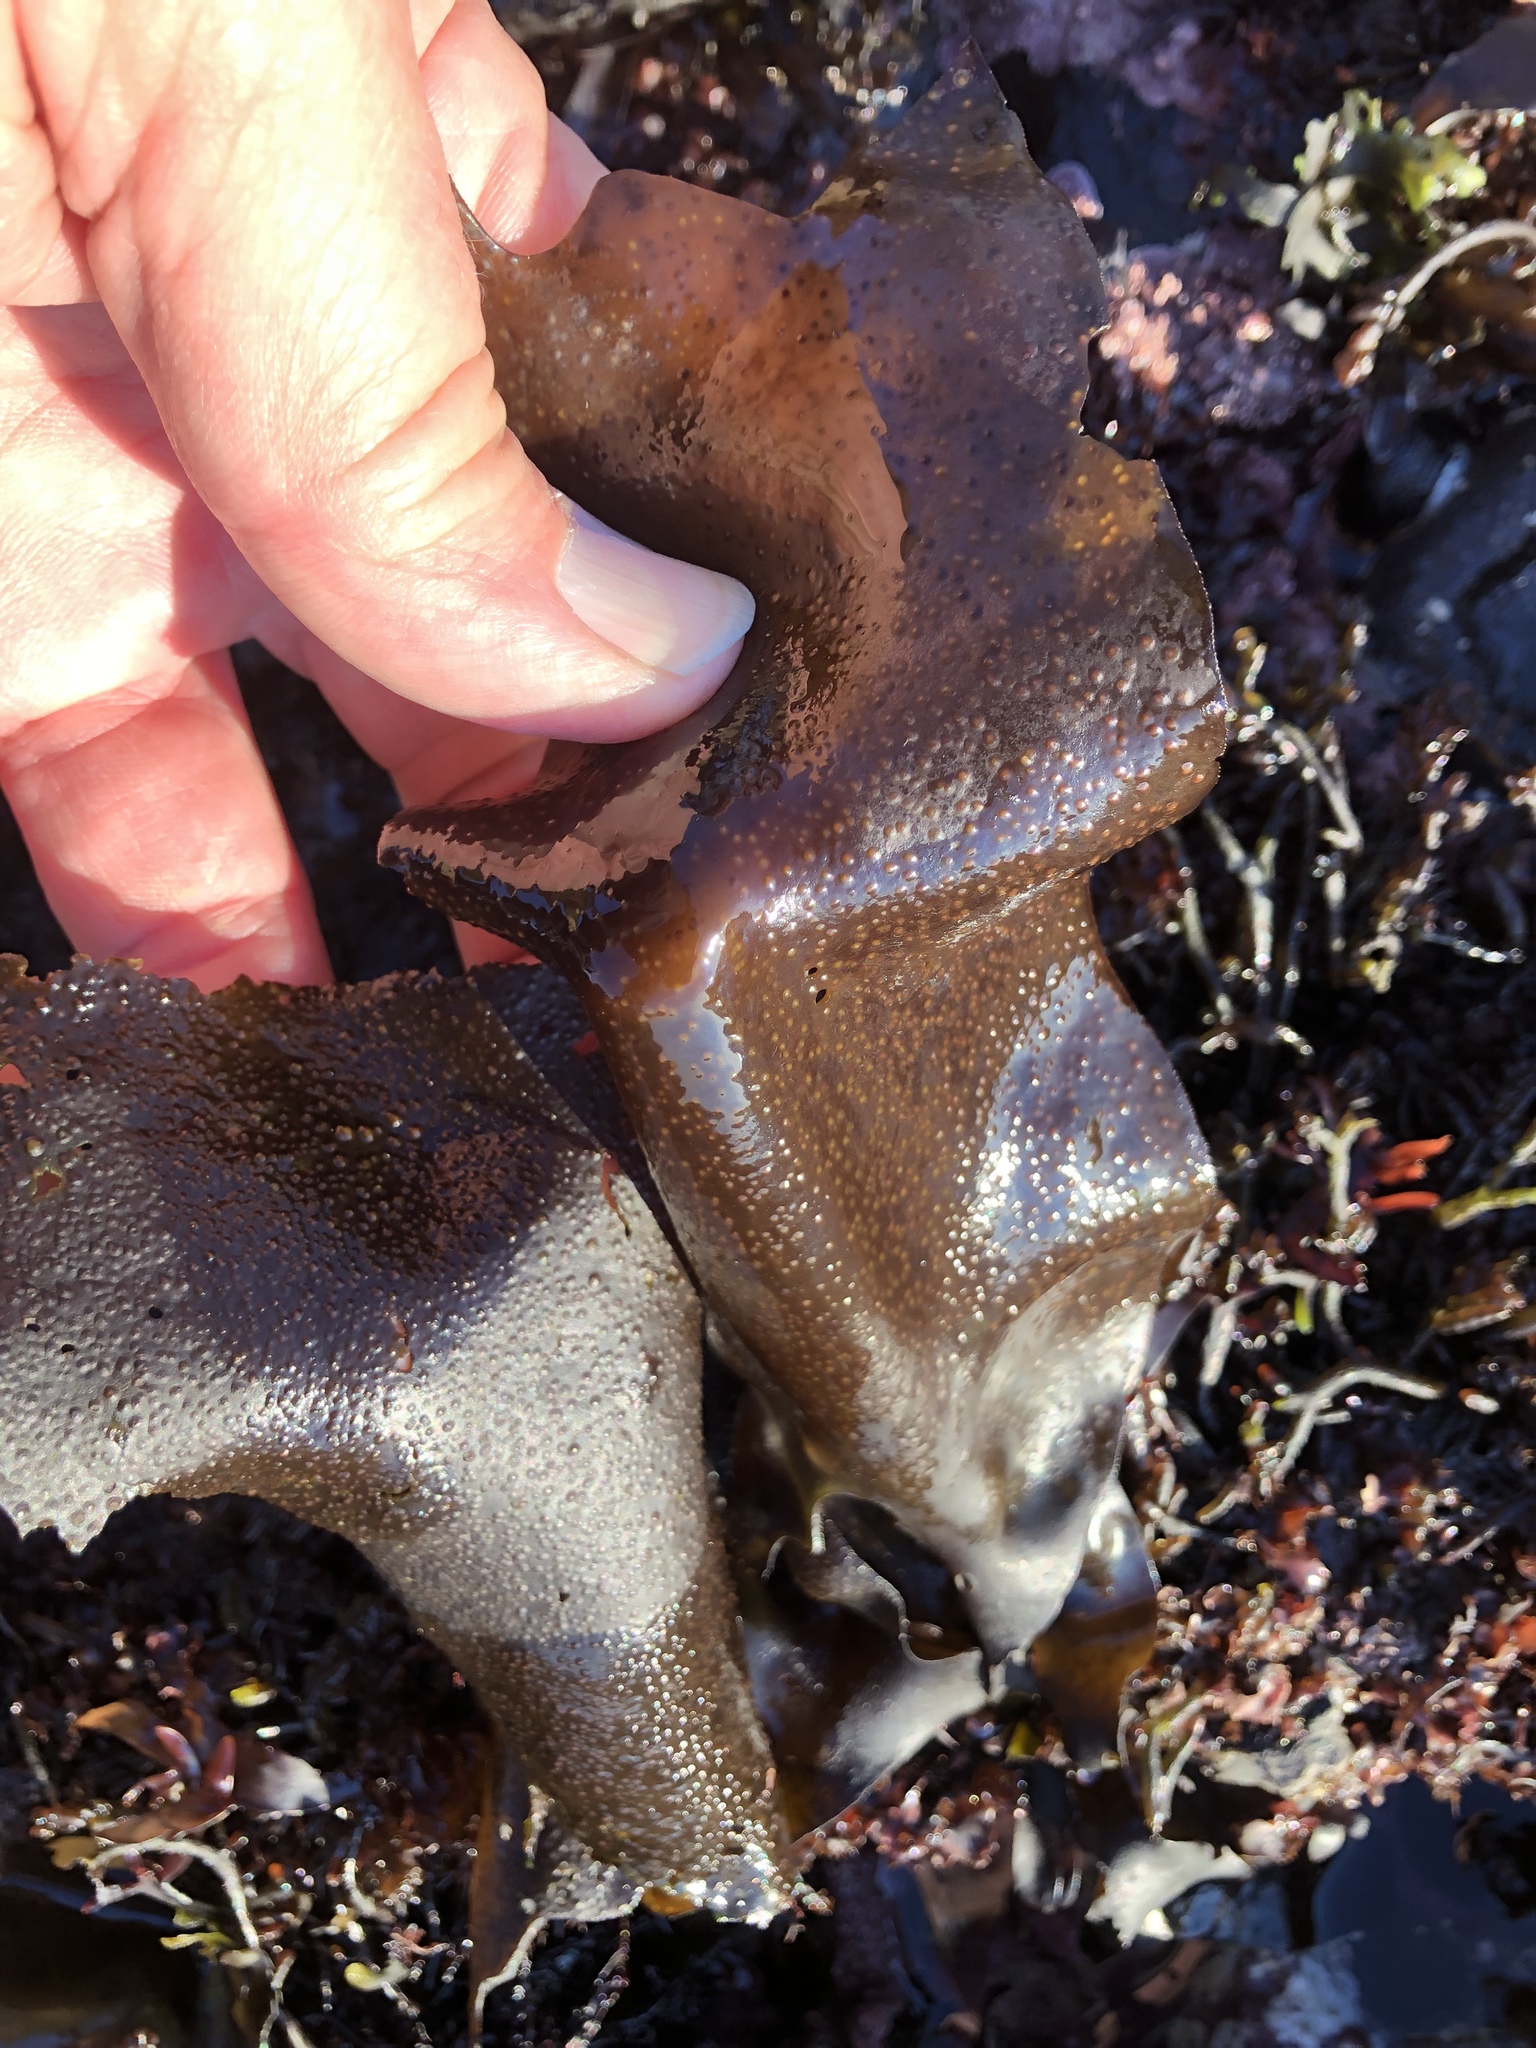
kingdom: Plantae
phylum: Rhodophyta
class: Florideophyceae
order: Gigartinales
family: Gigartinaceae
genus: Mazzaella
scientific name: Mazzaella oregona
